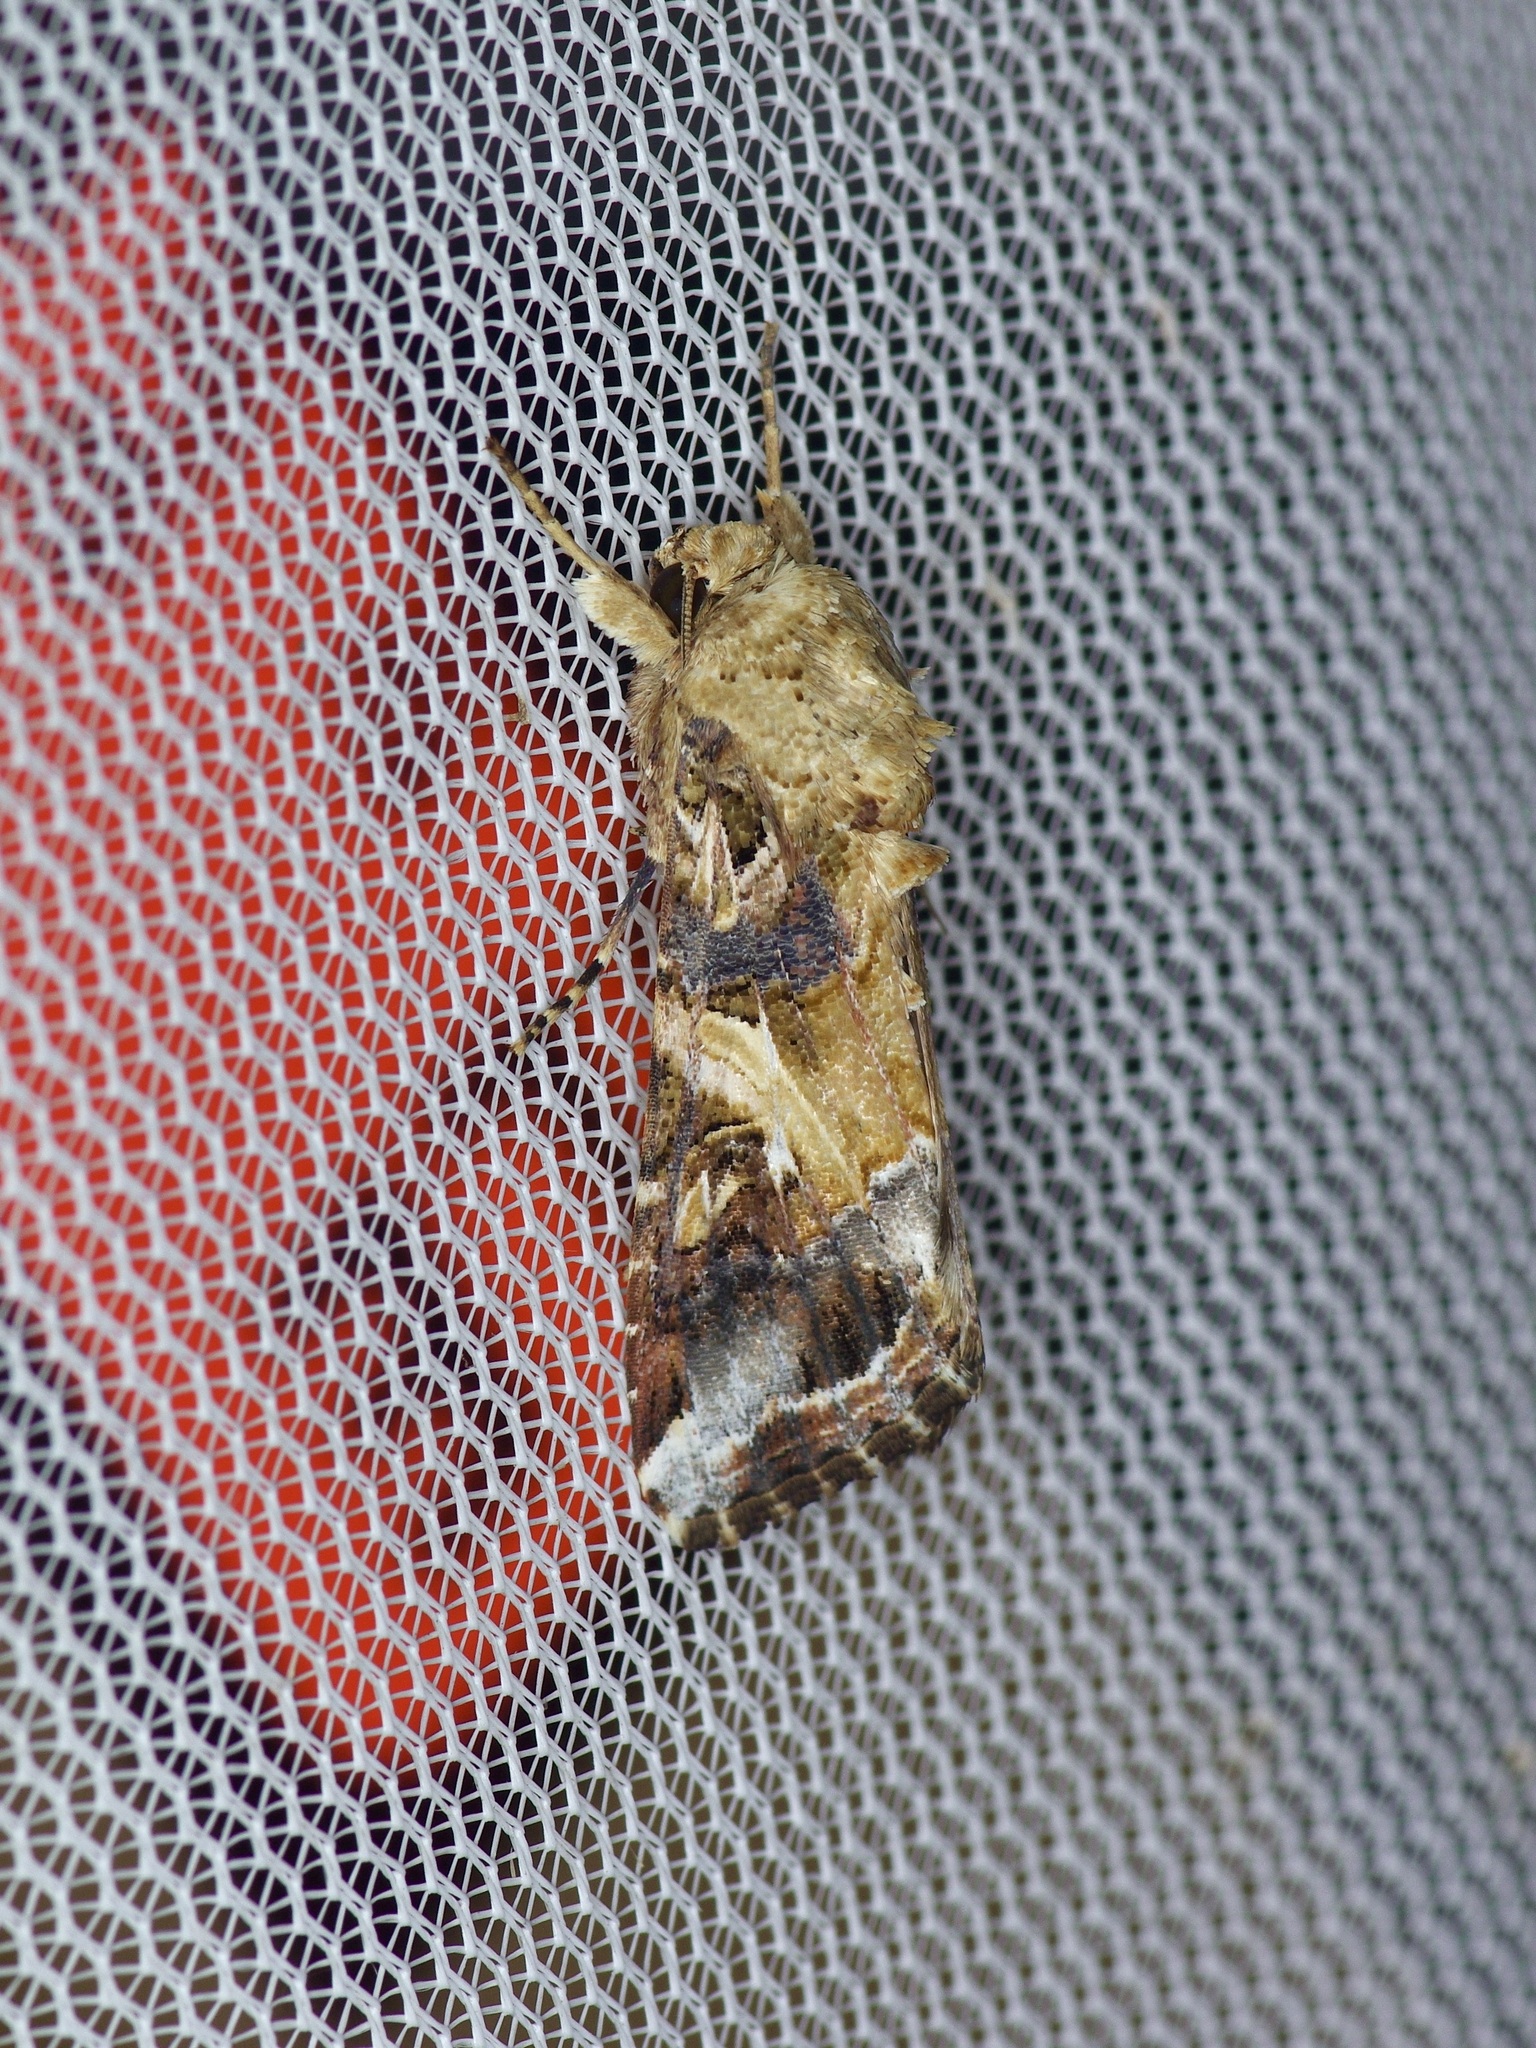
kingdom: Animalia
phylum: Arthropoda
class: Insecta
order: Lepidoptera
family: Noctuidae
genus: Spodoptera
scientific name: Spodoptera ornithogalli
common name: Yellow-striped armyworm
